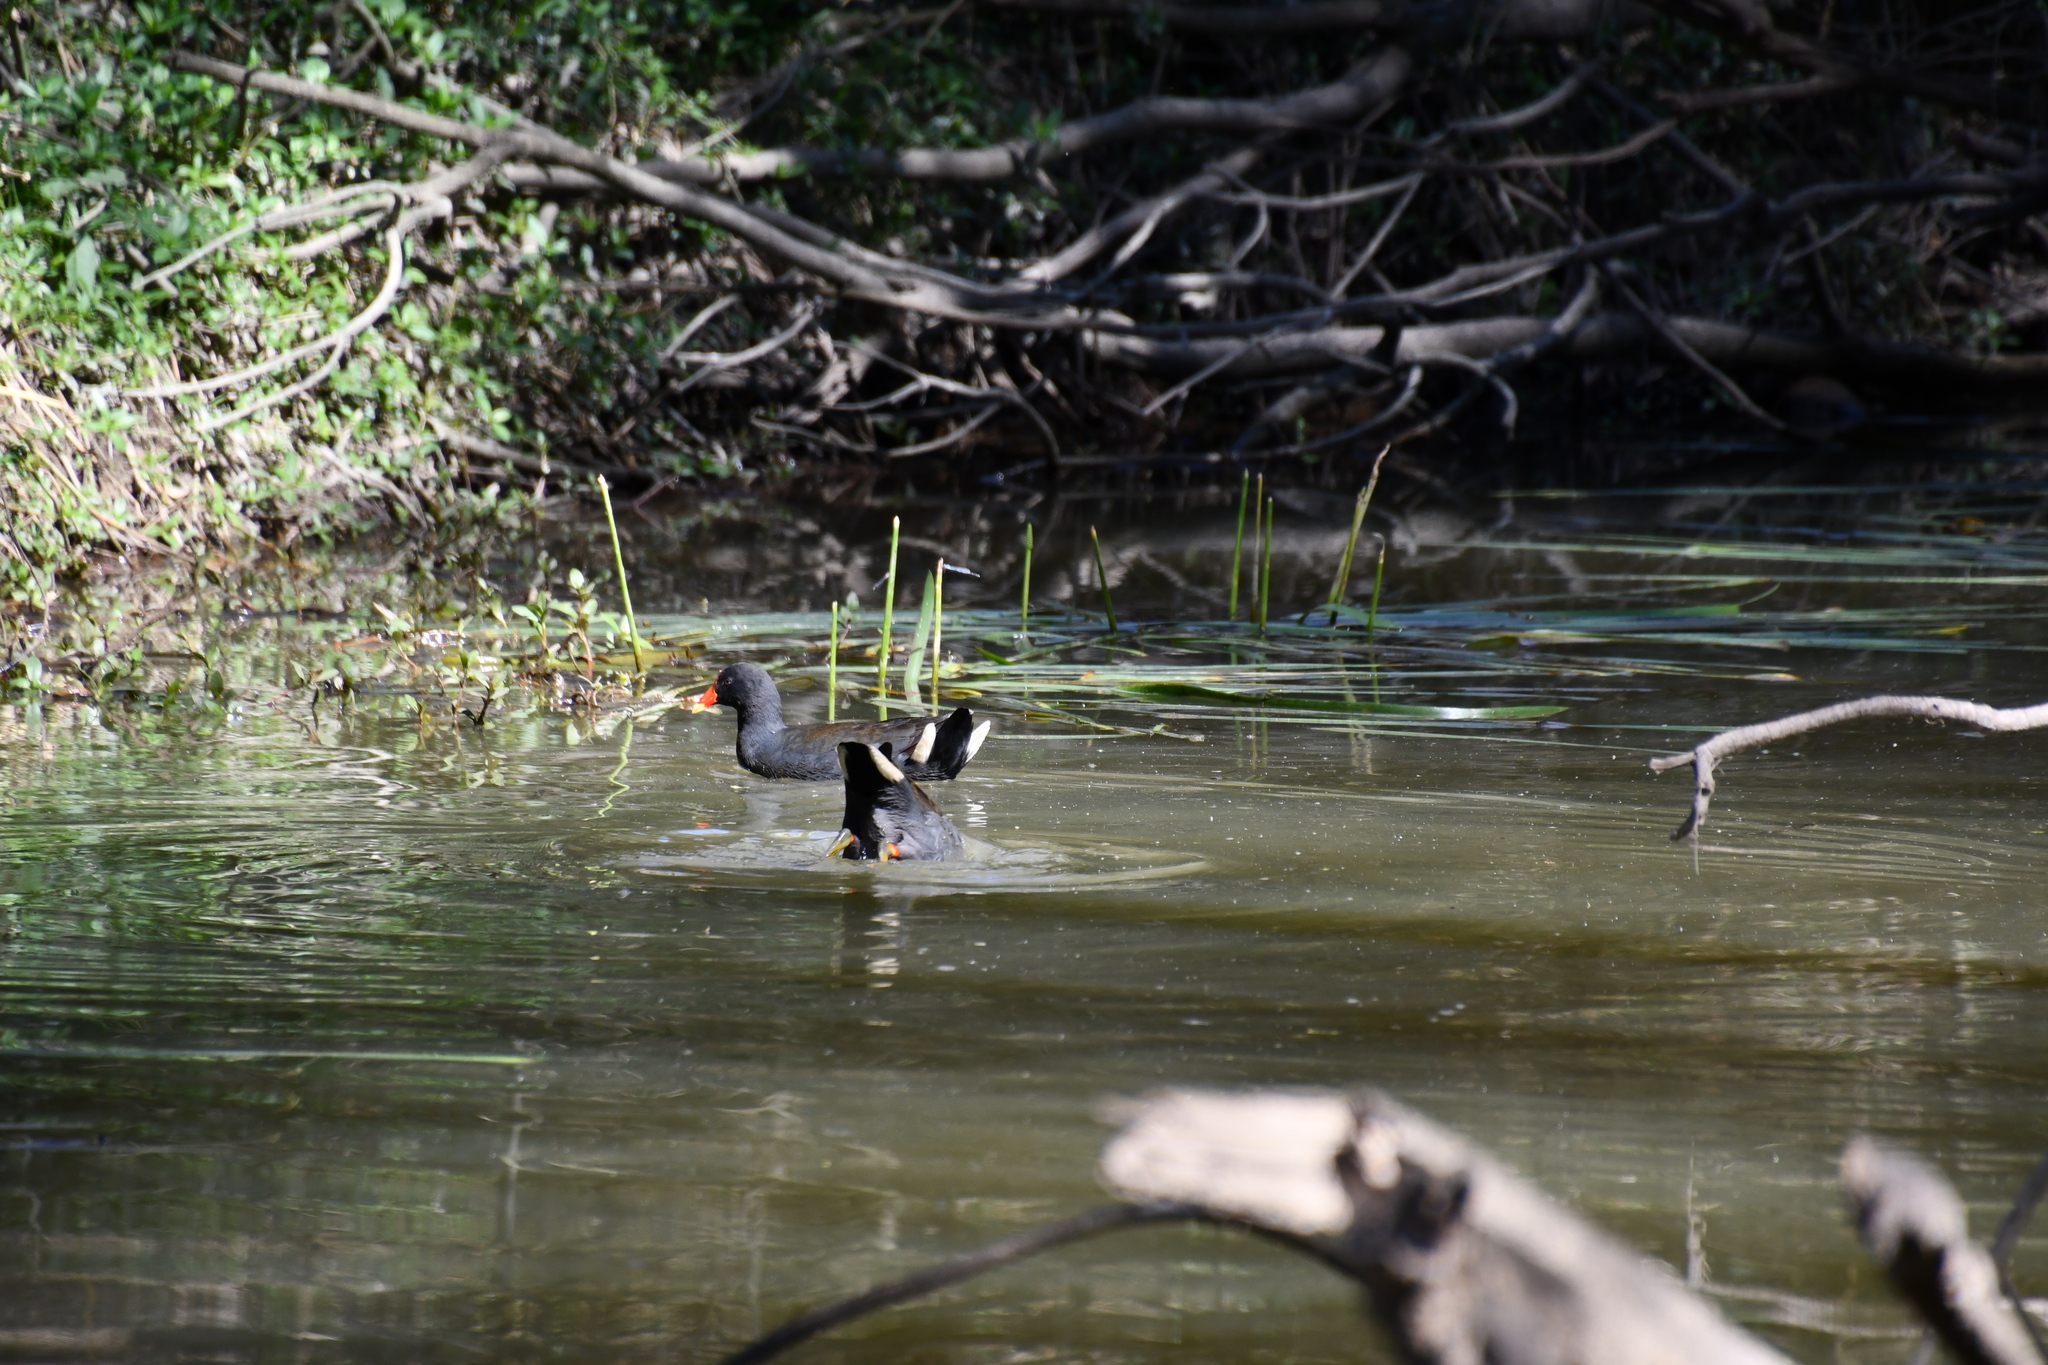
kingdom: Animalia
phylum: Chordata
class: Aves
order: Gruiformes
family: Rallidae
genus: Gallinula
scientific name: Gallinula tenebrosa
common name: Dusky moorhen
